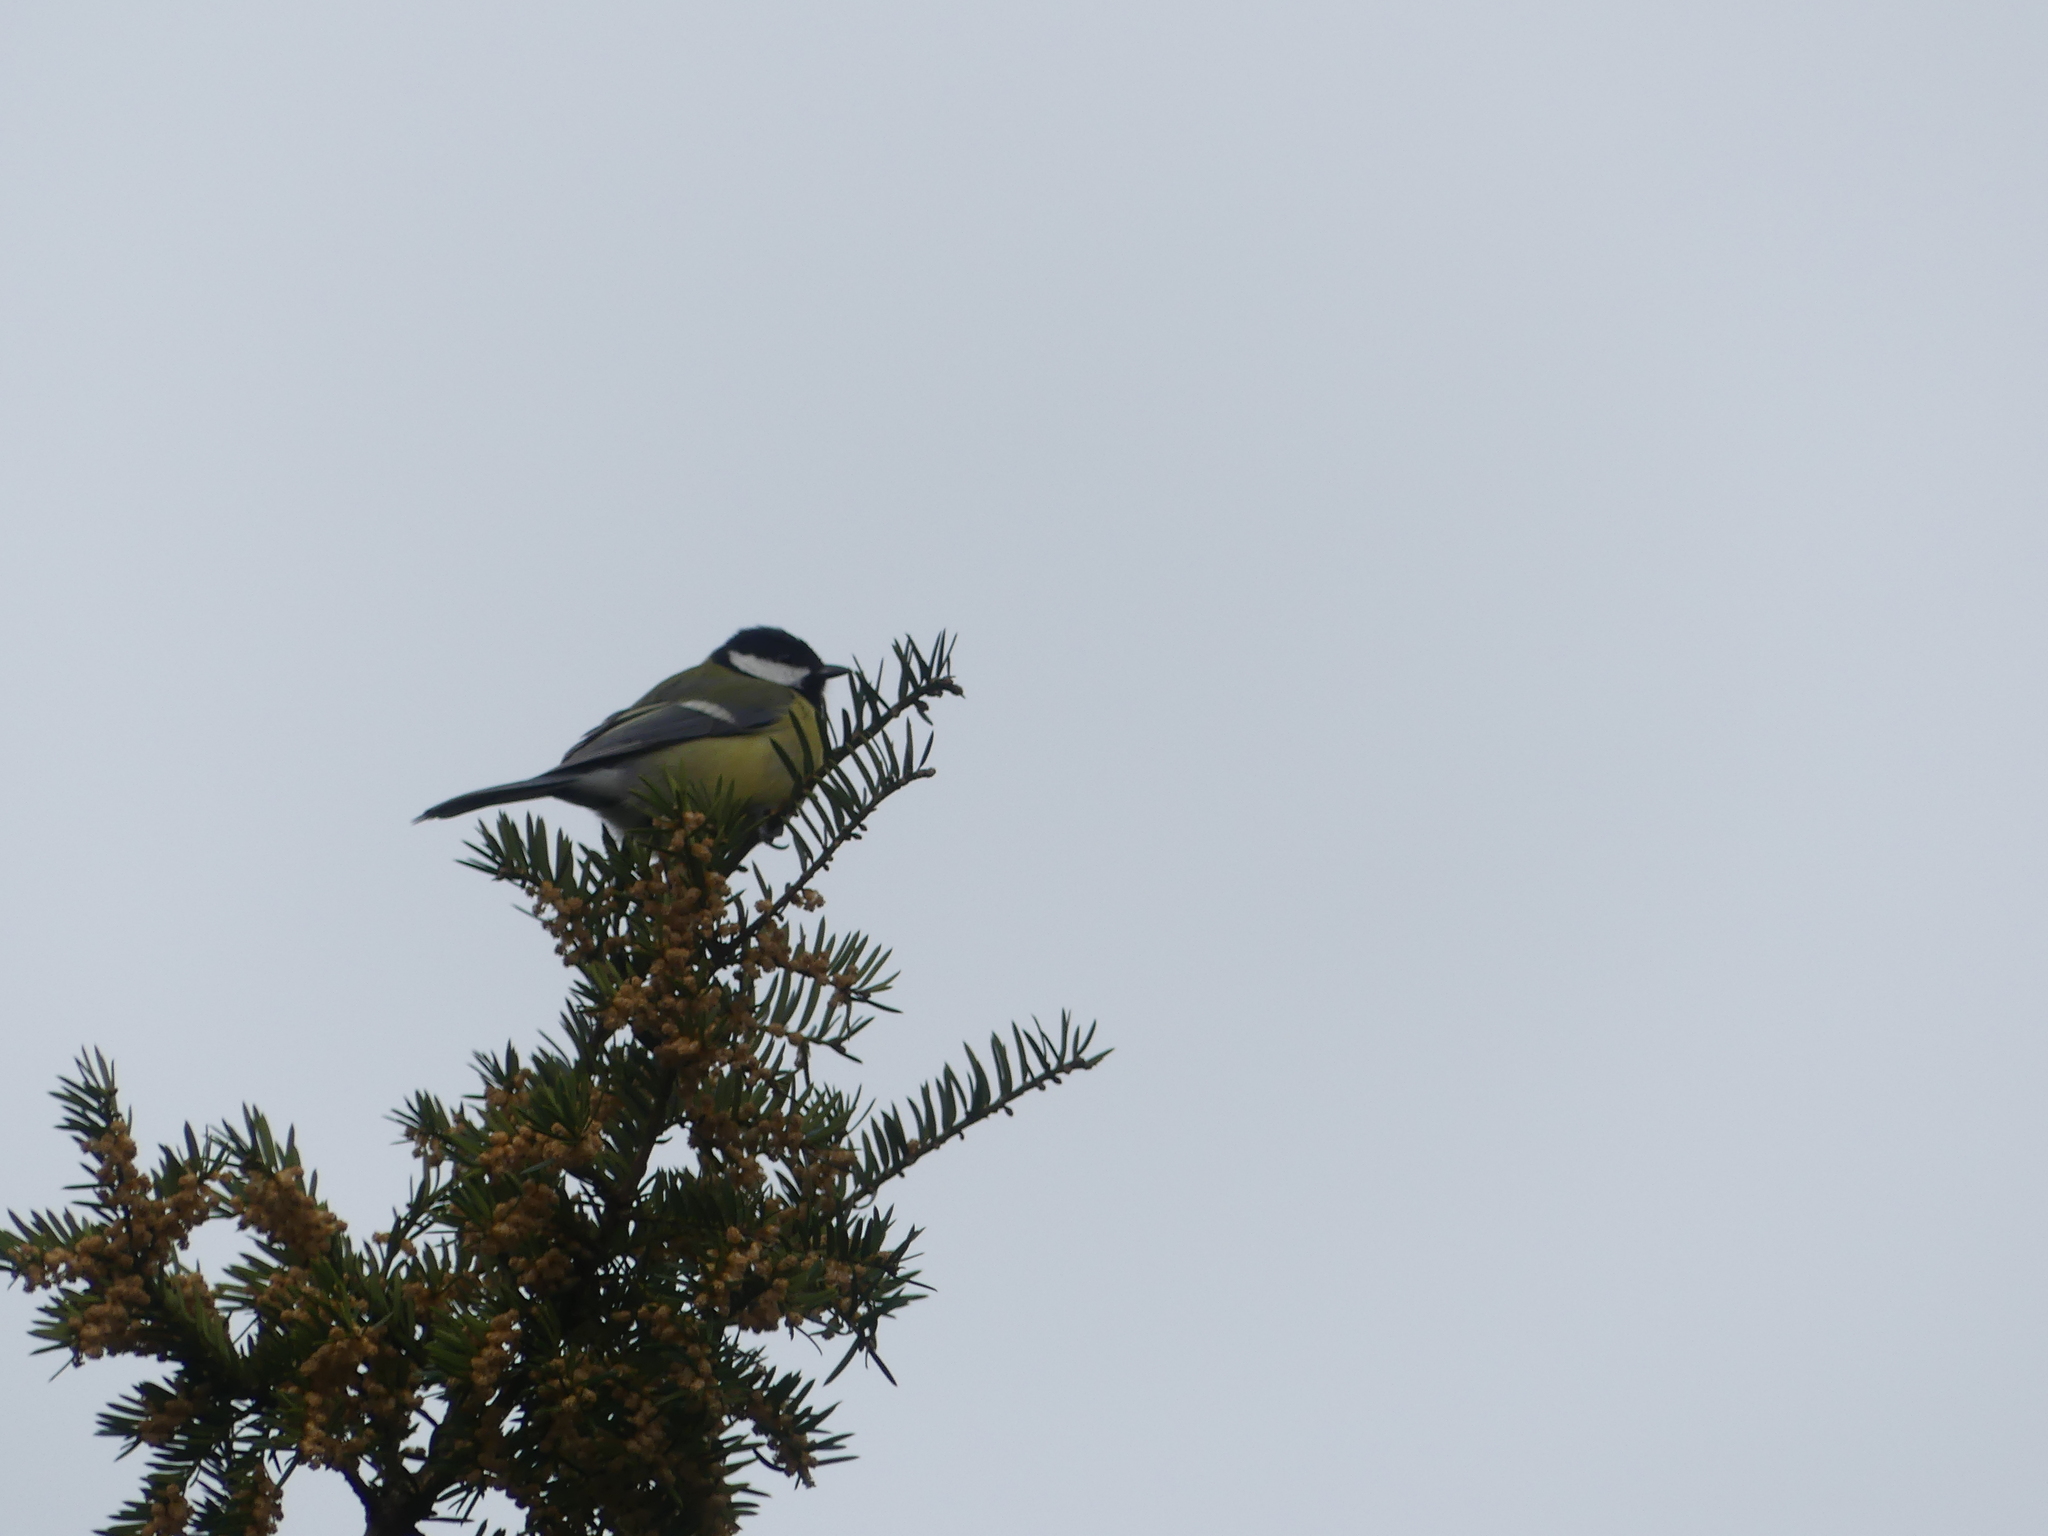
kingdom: Animalia
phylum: Chordata
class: Aves
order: Passeriformes
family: Paridae
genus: Parus
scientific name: Parus major
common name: Great tit
